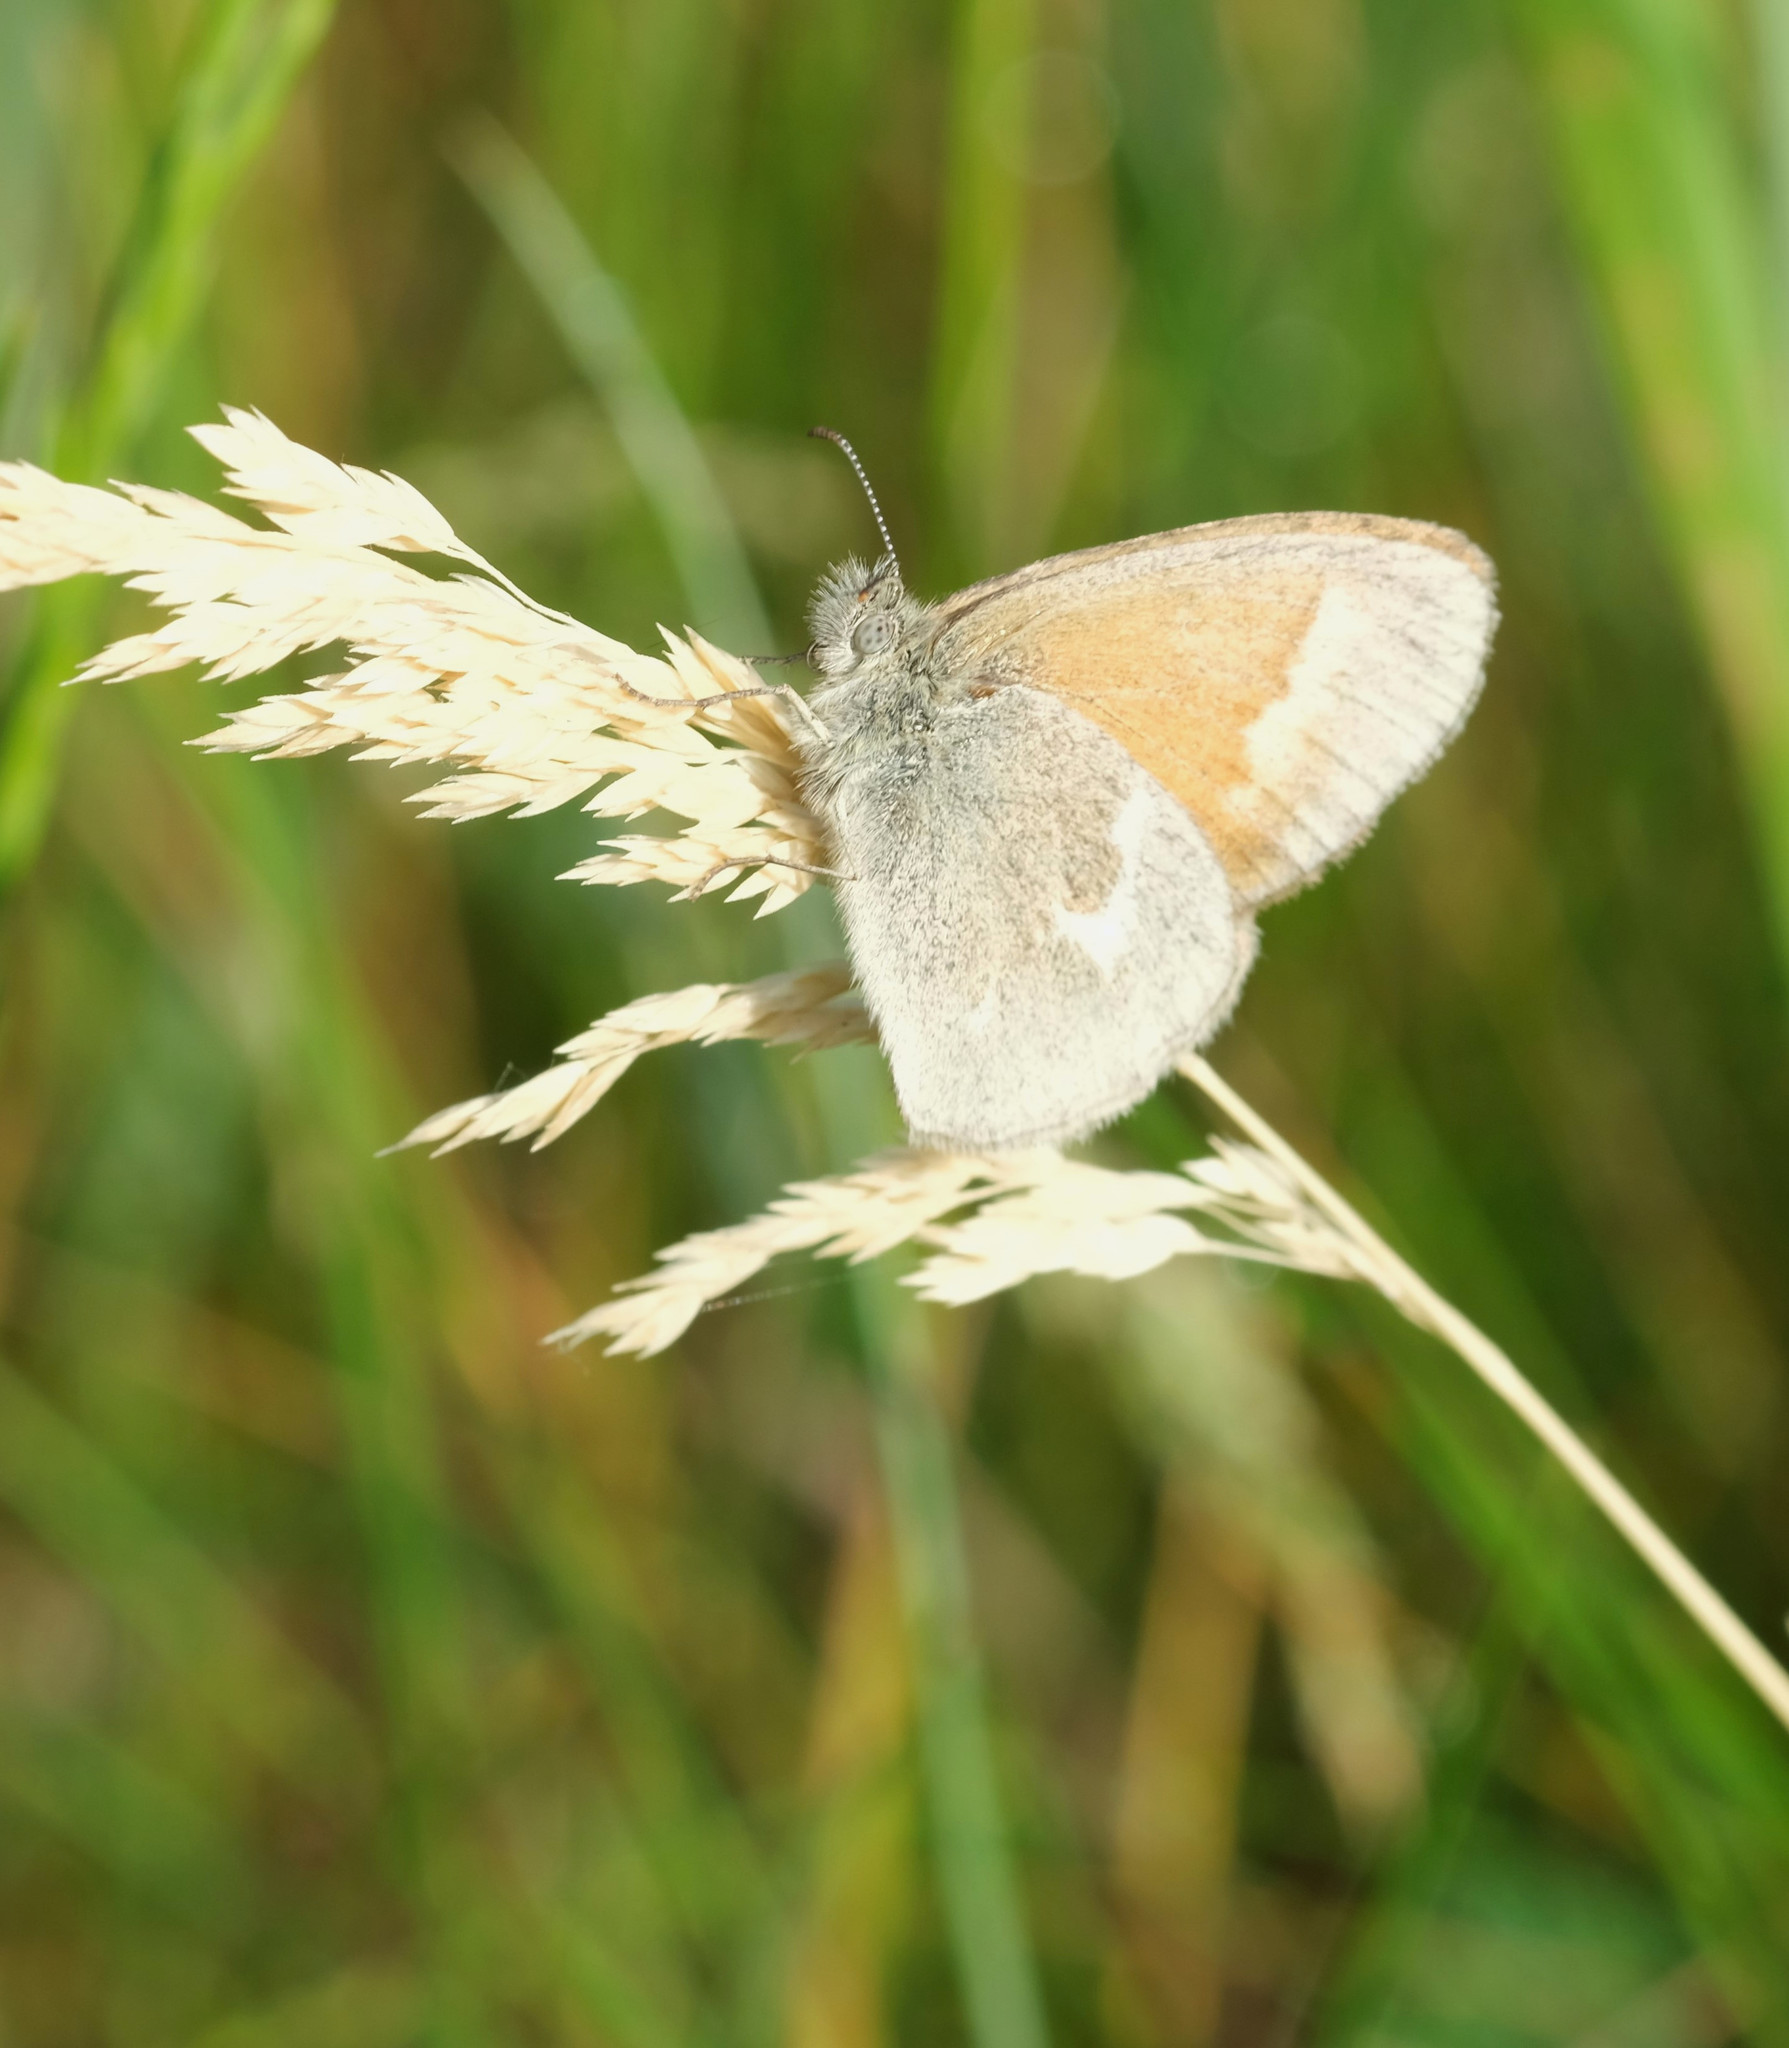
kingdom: Animalia
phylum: Arthropoda
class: Insecta
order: Lepidoptera
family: Nymphalidae
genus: Coenonympha
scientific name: Coenonympha california
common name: Common ringlet
